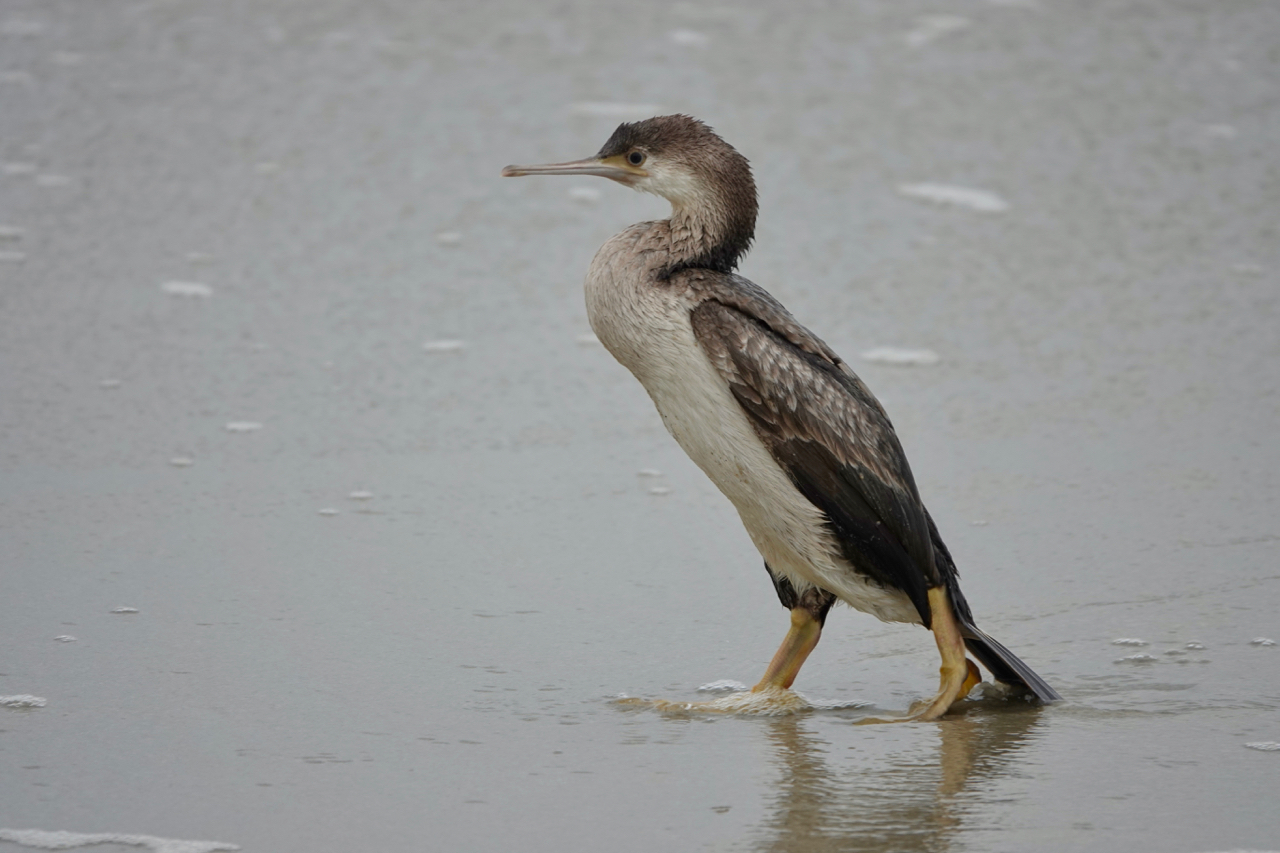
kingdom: Animalia
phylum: Chordata
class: Aves
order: Suliformes
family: Phalacrocoracidae
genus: Phalacrocorax
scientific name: Phalacrocorax punctatus
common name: Spotted shag
